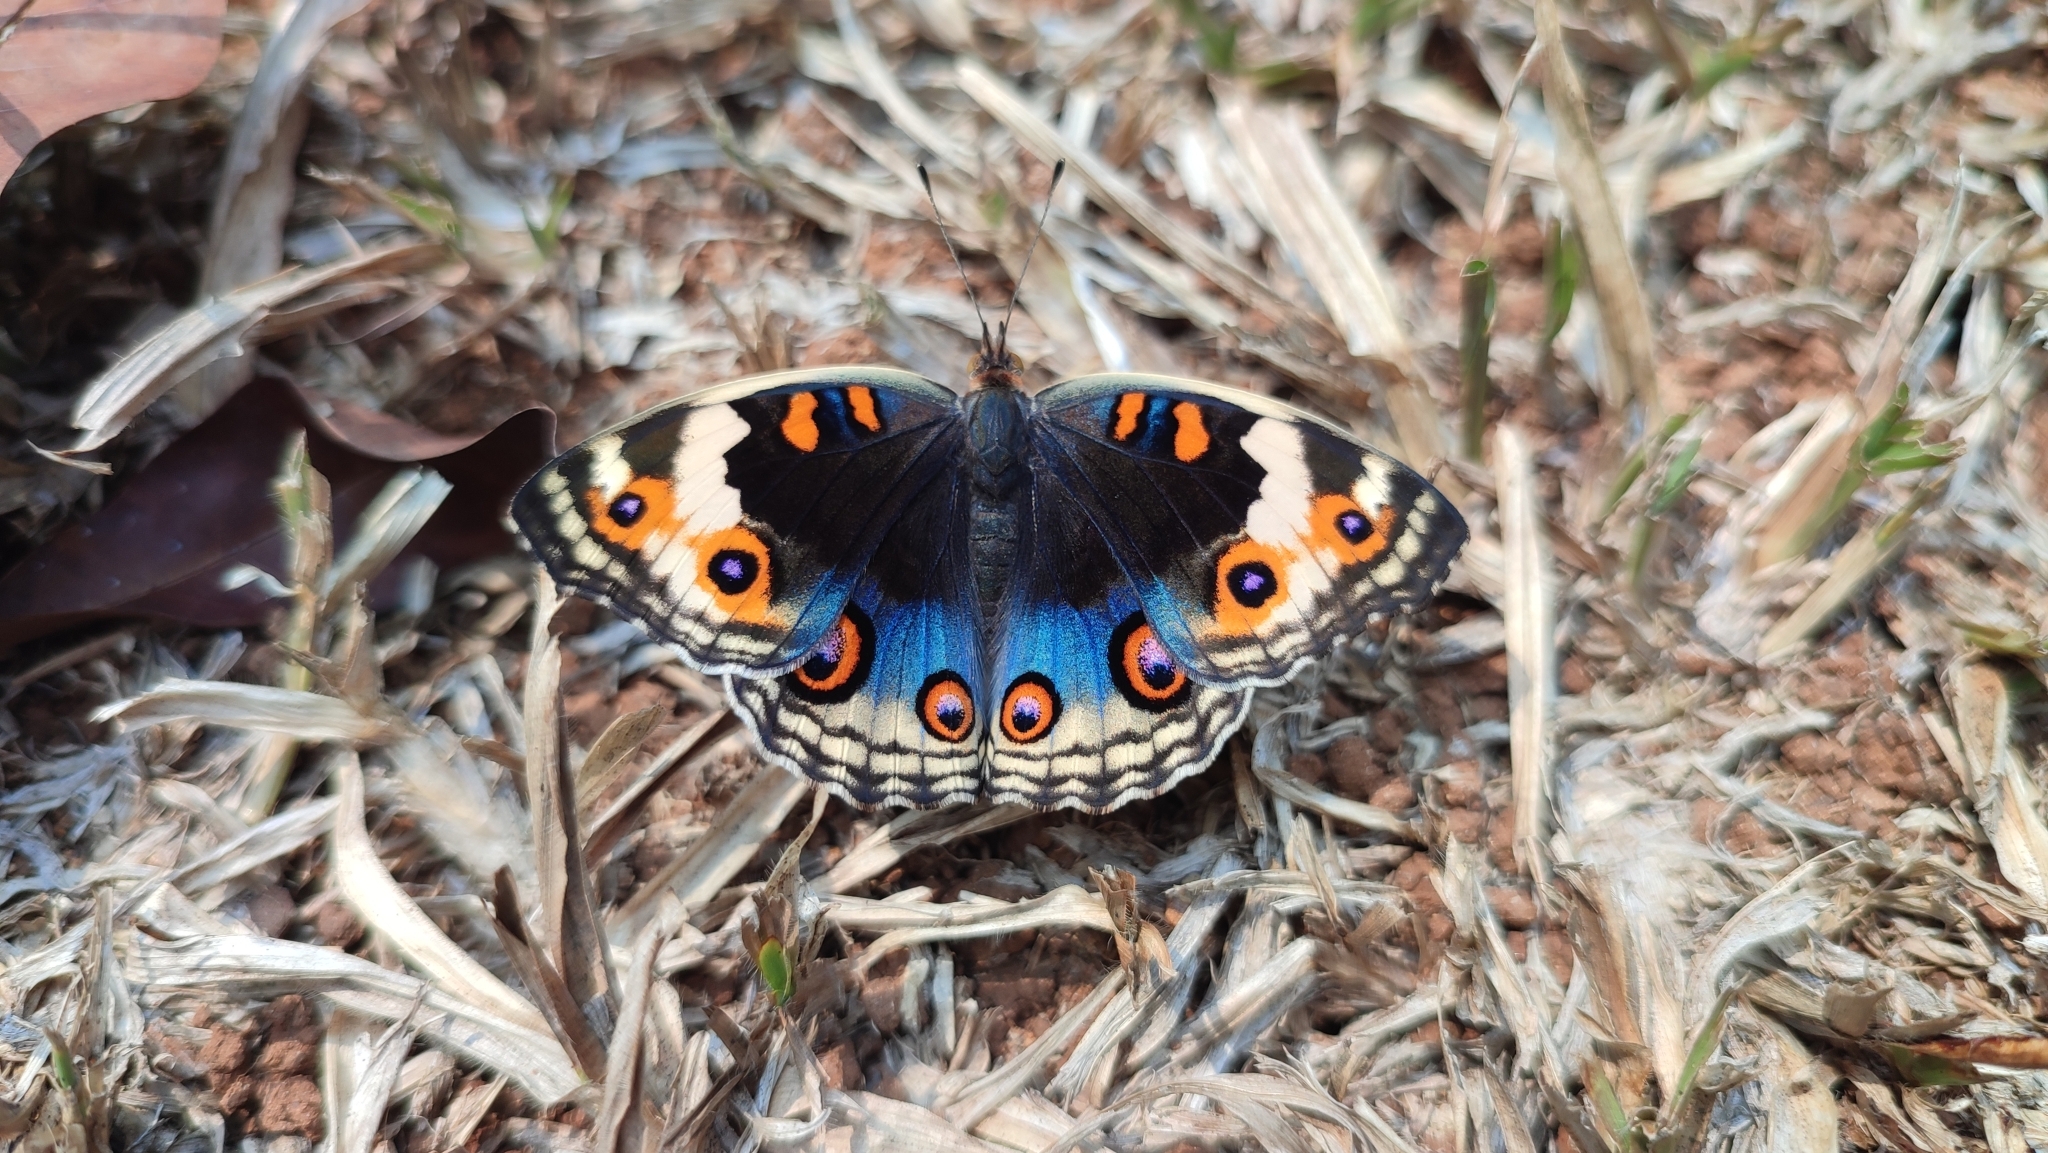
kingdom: Animalia
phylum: Arthropoda
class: Insecta
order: Lepidoptera
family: Nymphalidae
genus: Junonia
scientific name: Junonia orithya
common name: Blue pansy
